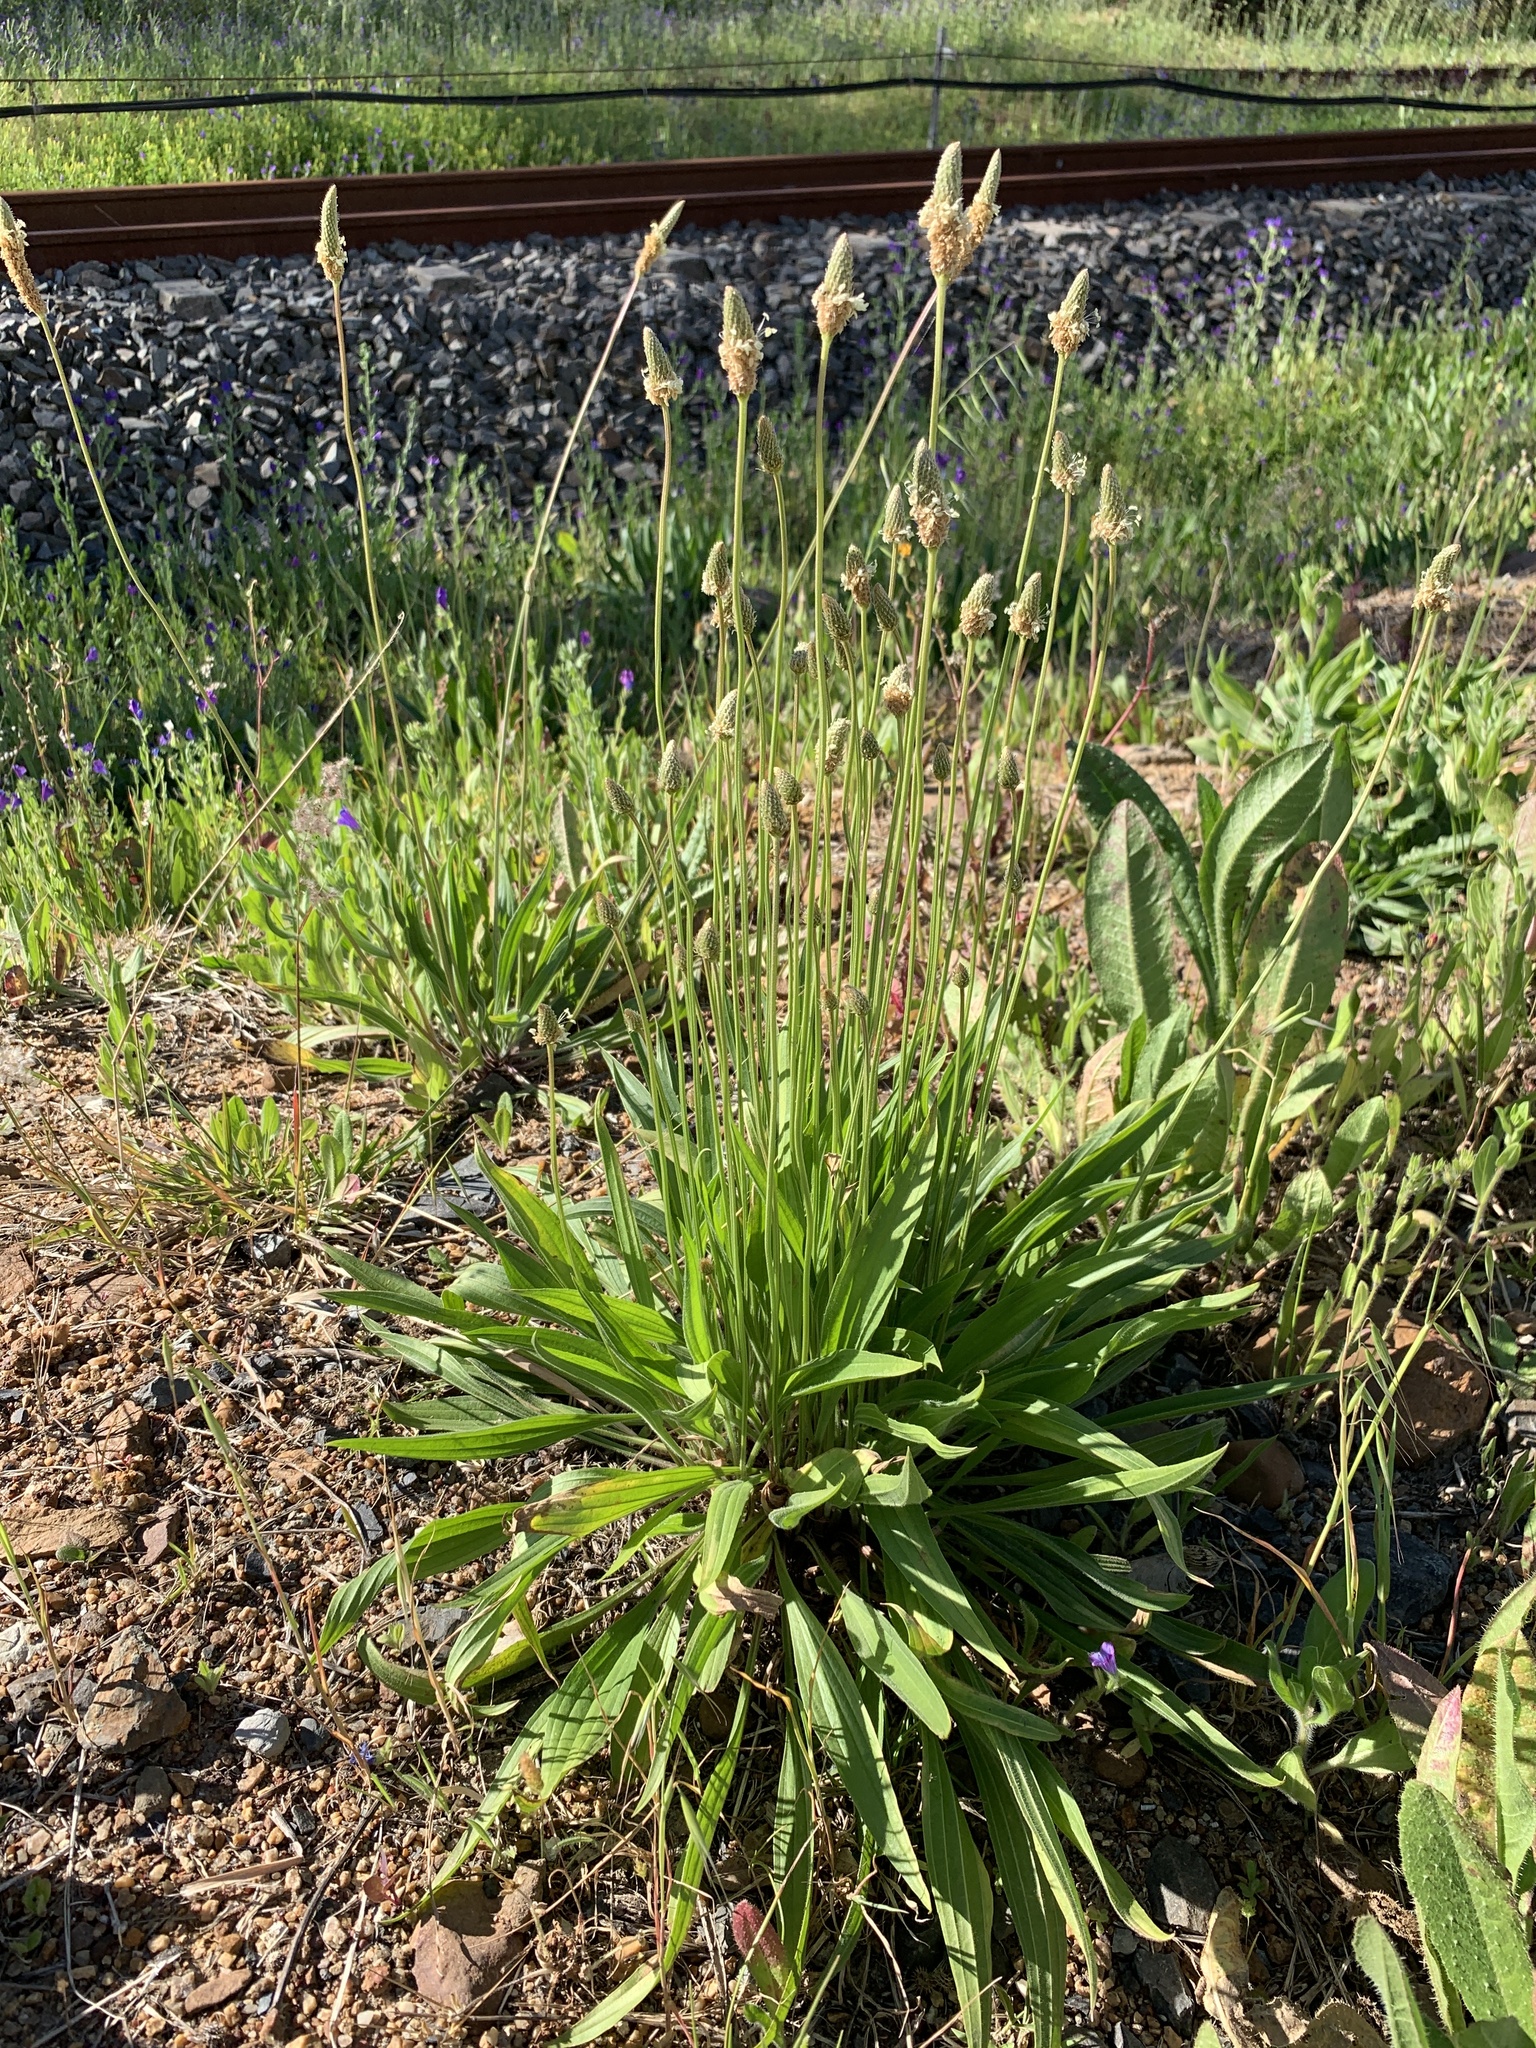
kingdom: Plantae
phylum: Tracheophyta
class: Magnoliopsida
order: Lamiales
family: Plantaginaceae
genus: Plantago
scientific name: Plantago lanceolata
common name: Ribwort plantain
